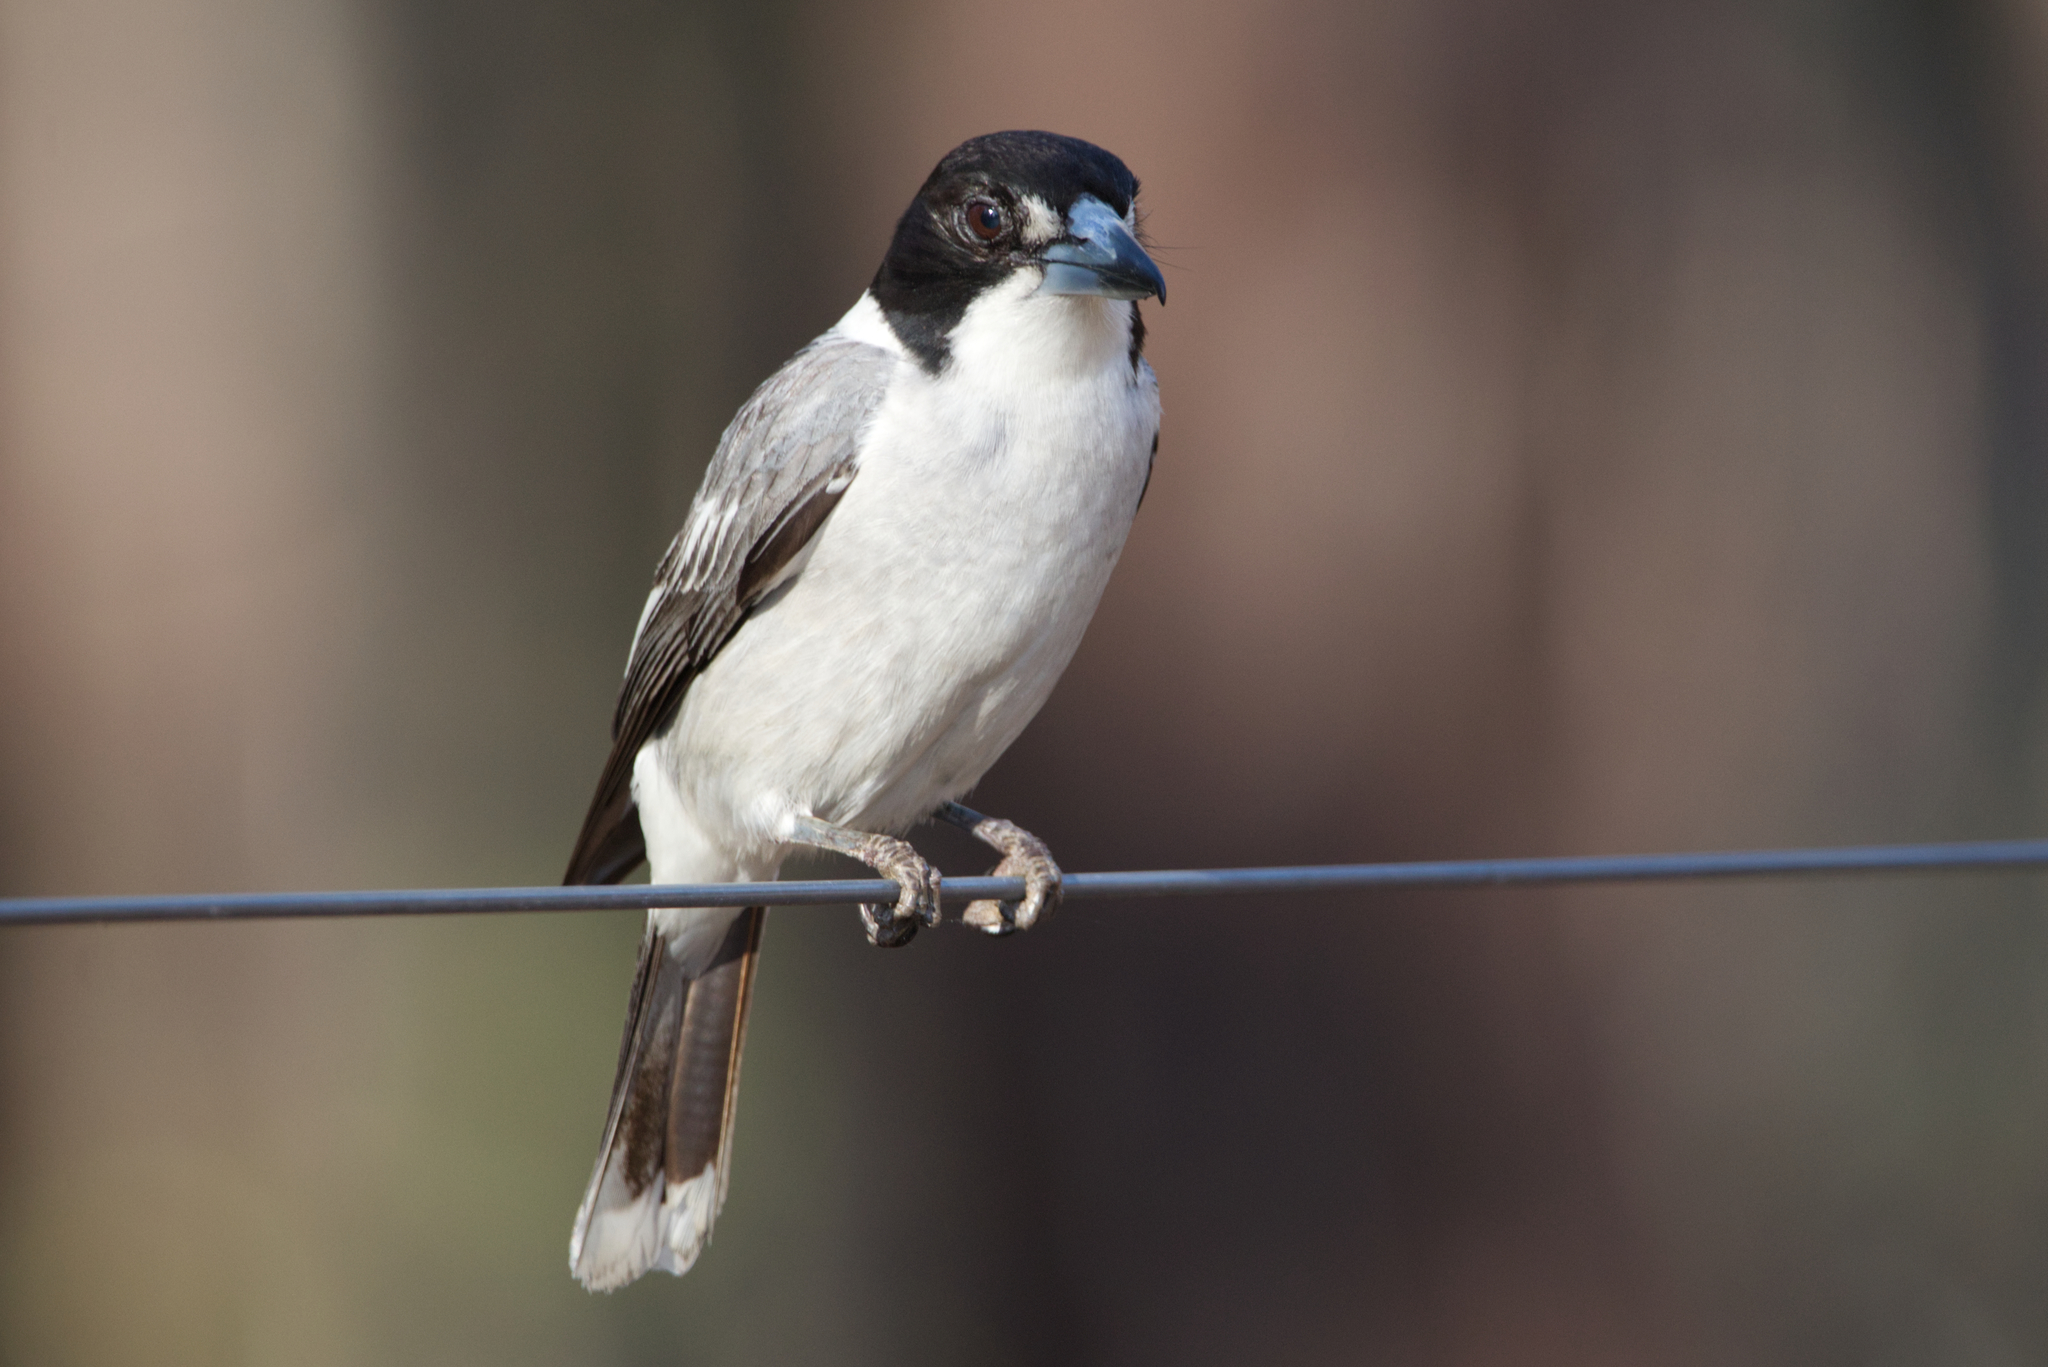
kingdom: Animalia
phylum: Chordata
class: Aves
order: Passeriformes
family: Cracticidae
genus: Cracticus
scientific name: Cracticus torquatus
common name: Grey butcherbird
